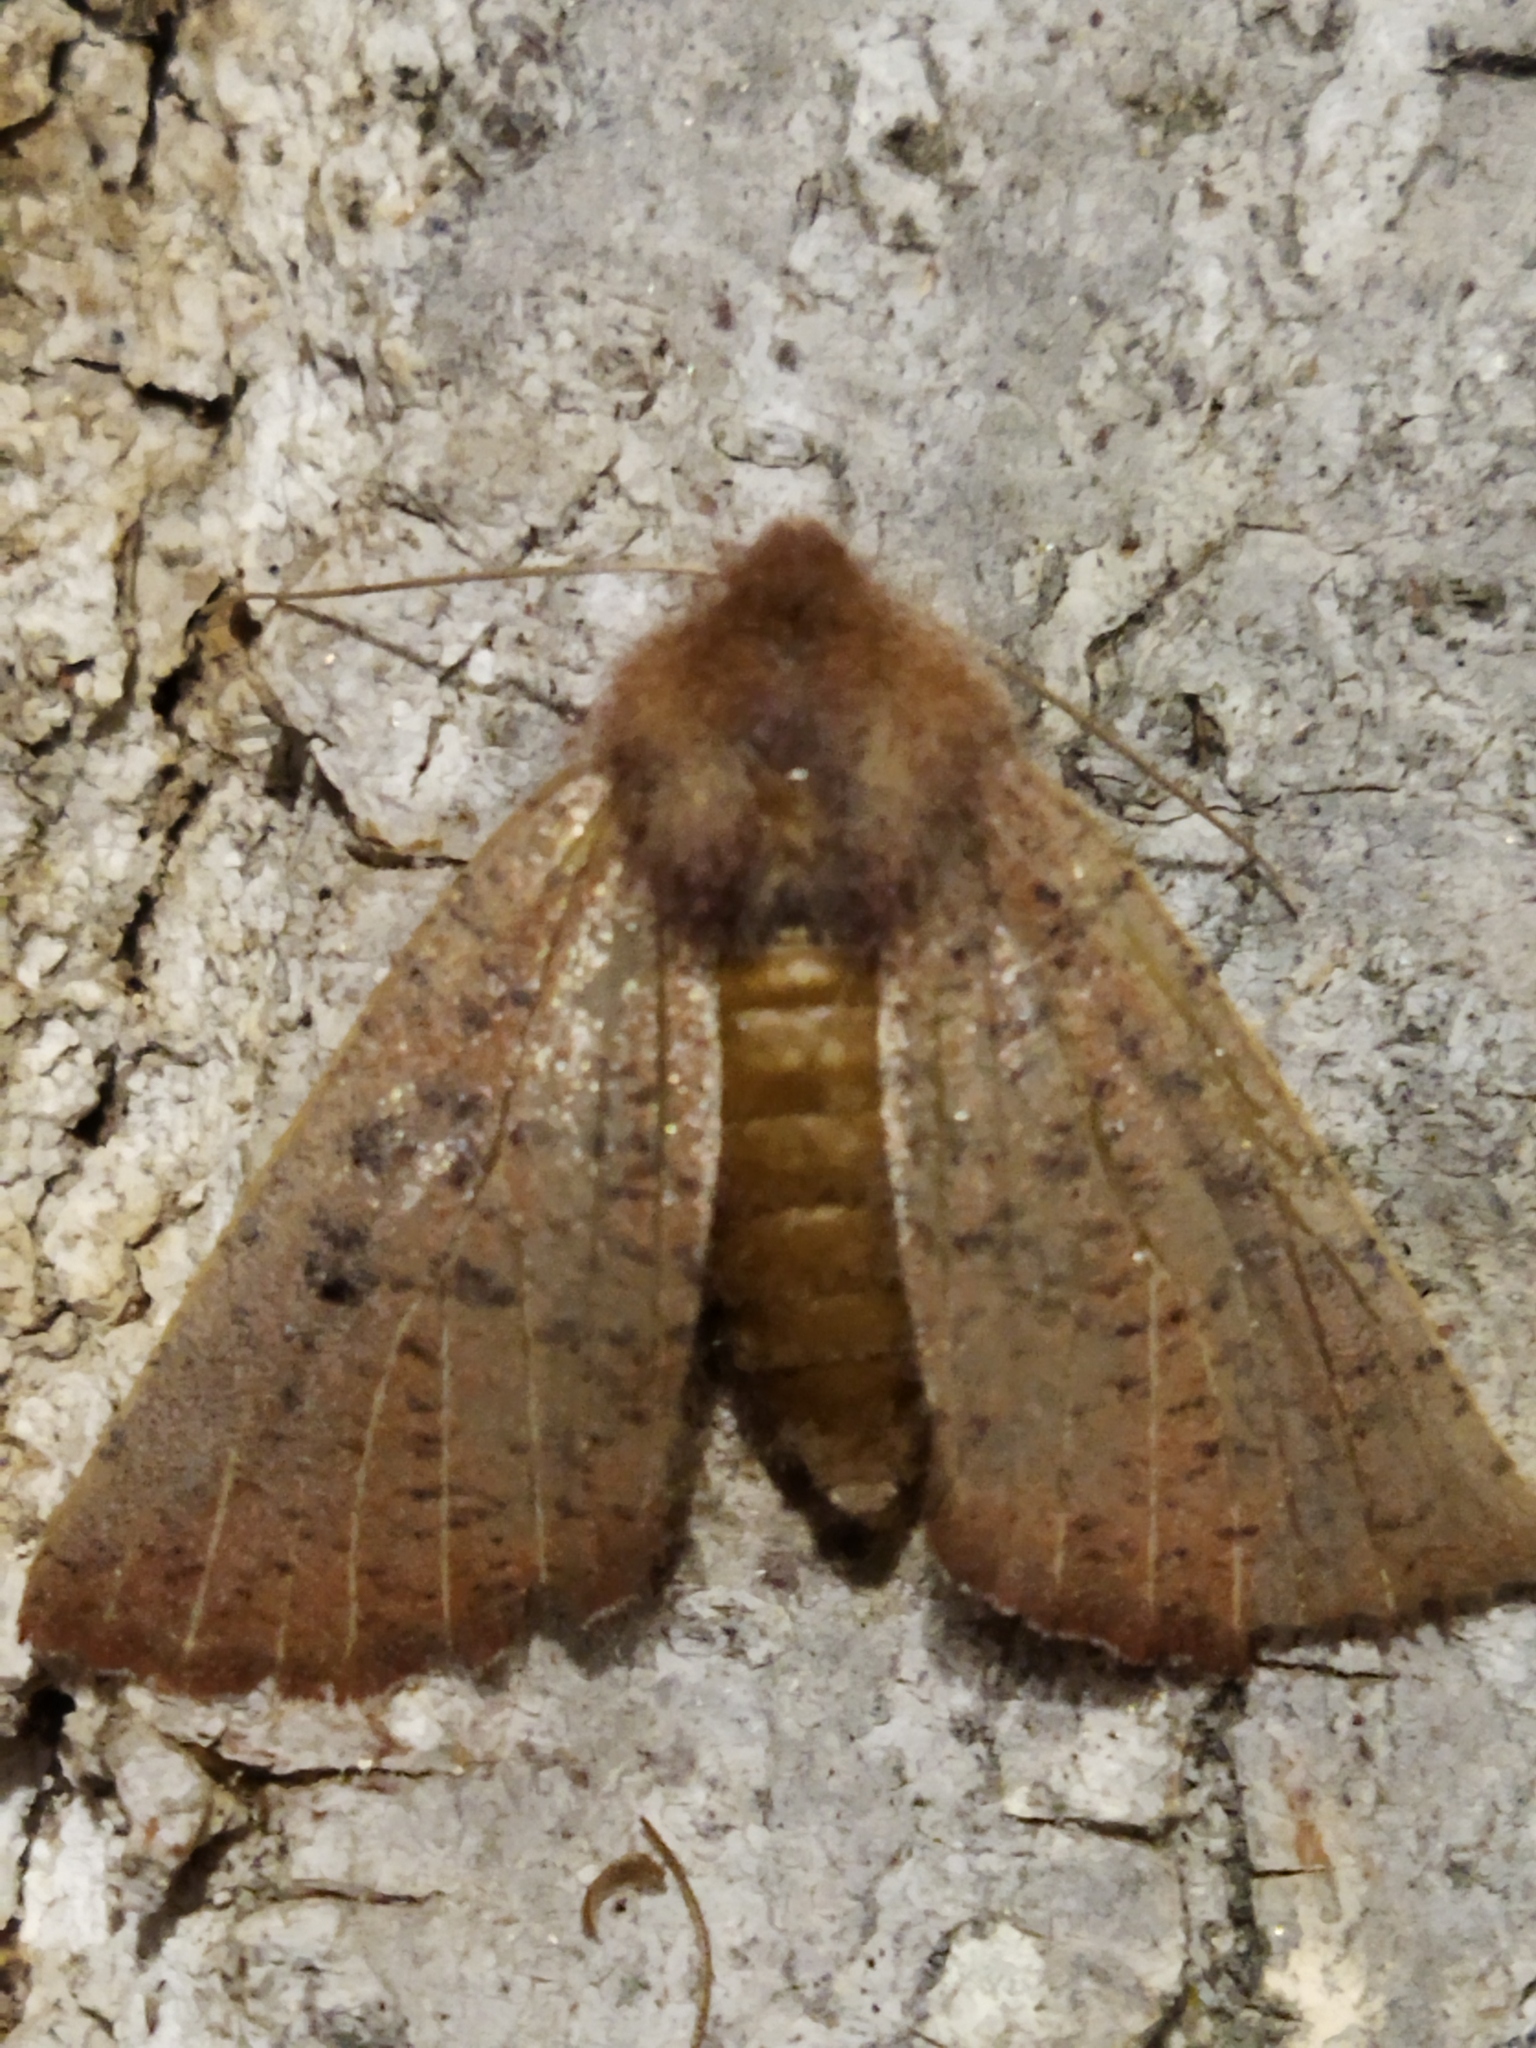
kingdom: Animalia
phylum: Arthropoda
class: Insecta
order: Lepidoptera
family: Geometridae
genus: Dasycorsa
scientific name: Dasycorsa modesta
